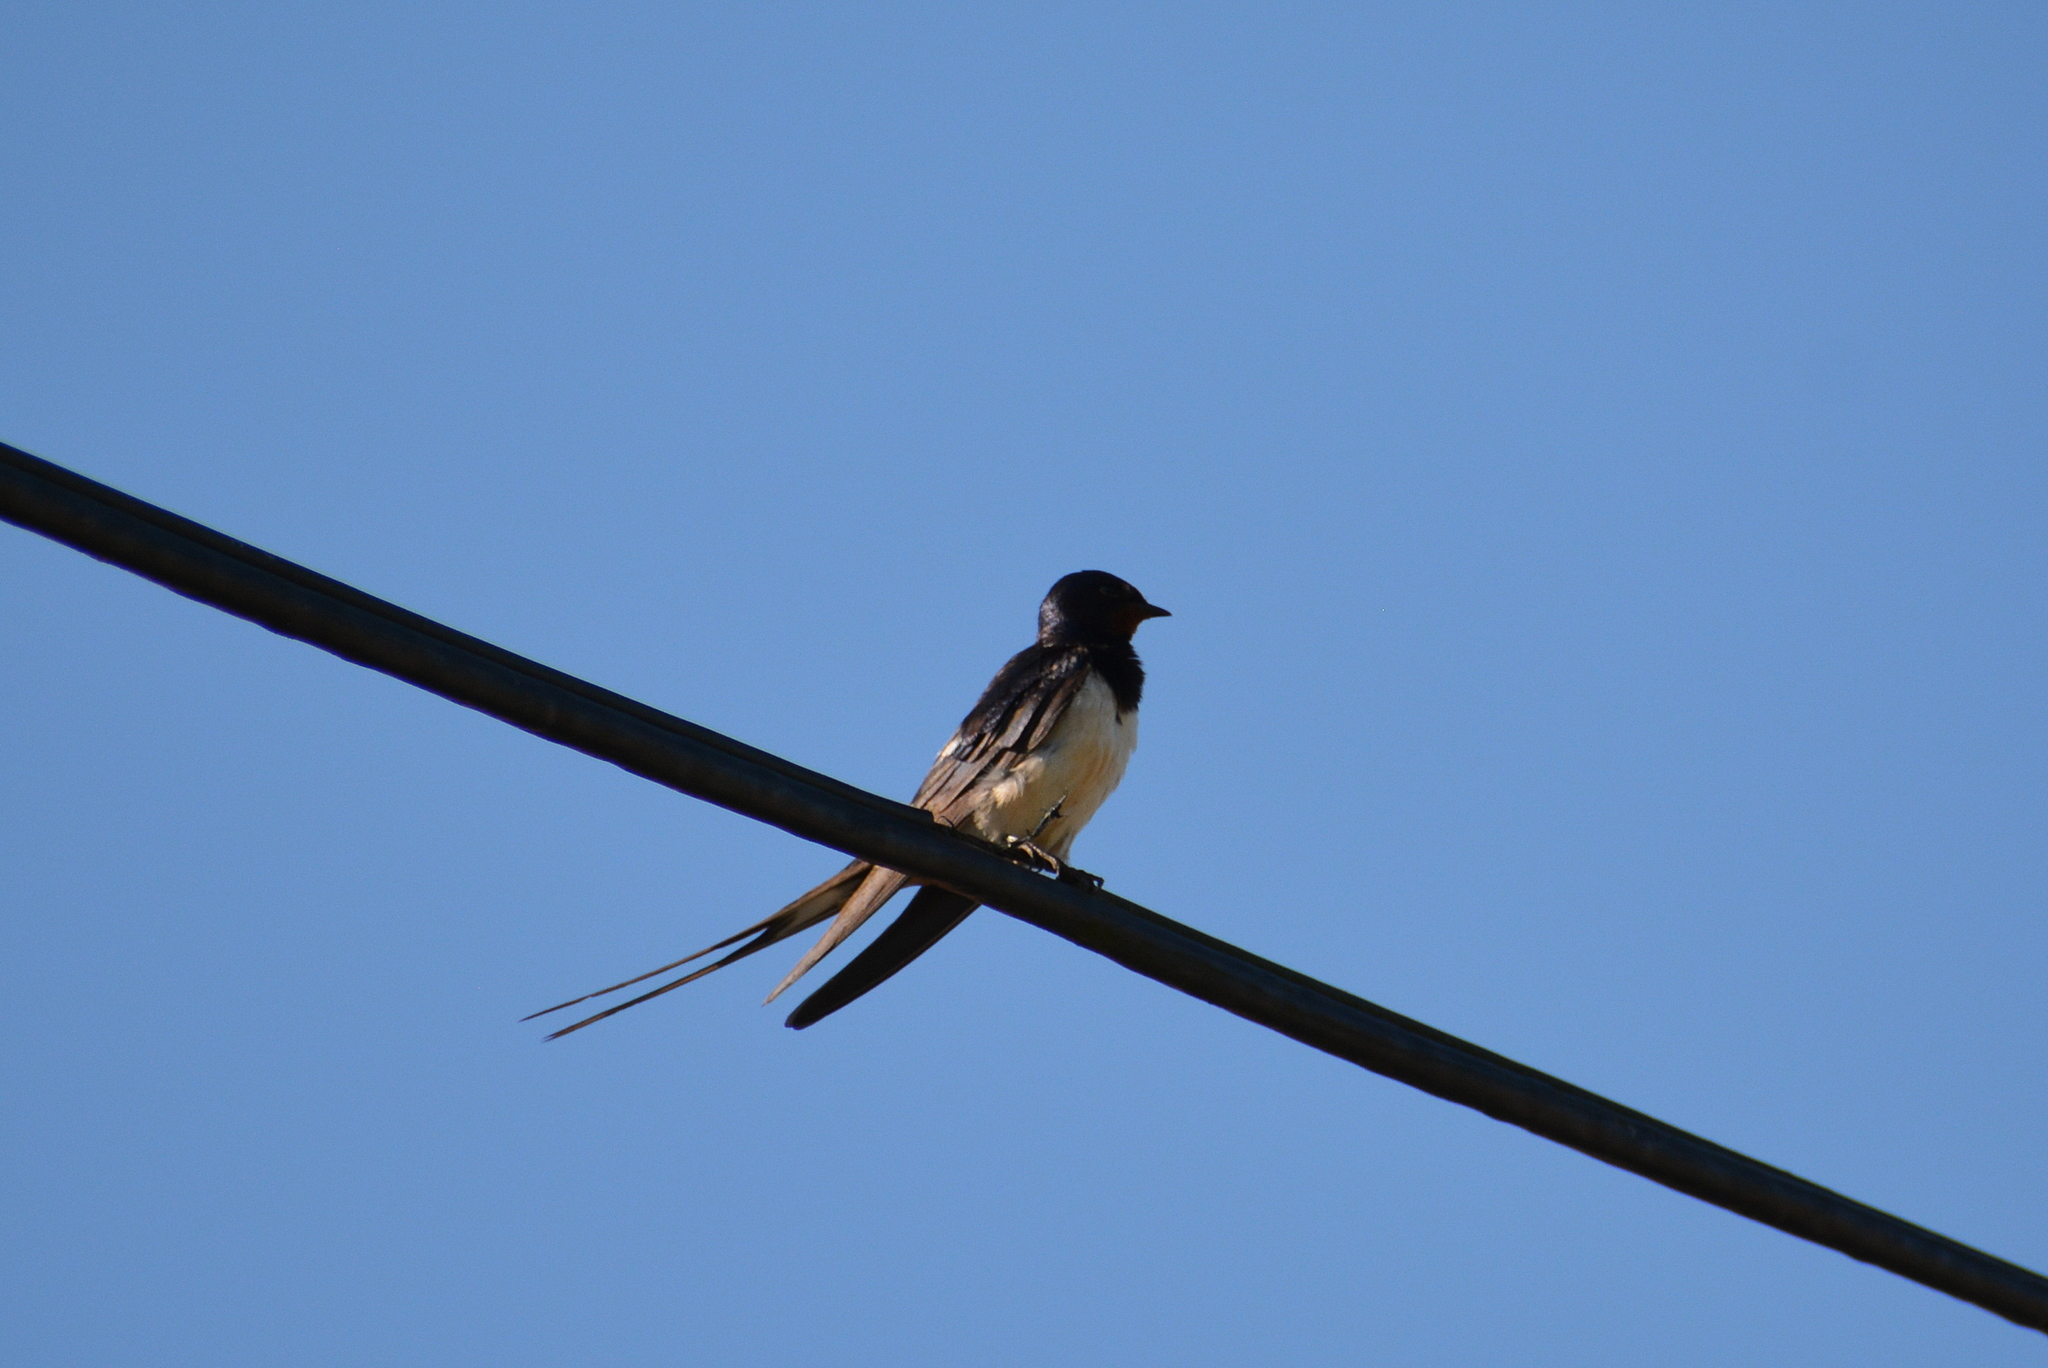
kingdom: Animalia
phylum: Chordata
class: Aves
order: Passeriformes
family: Hirundinidae
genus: Hirundo
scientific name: Hirundo rustica
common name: Barn swallow
